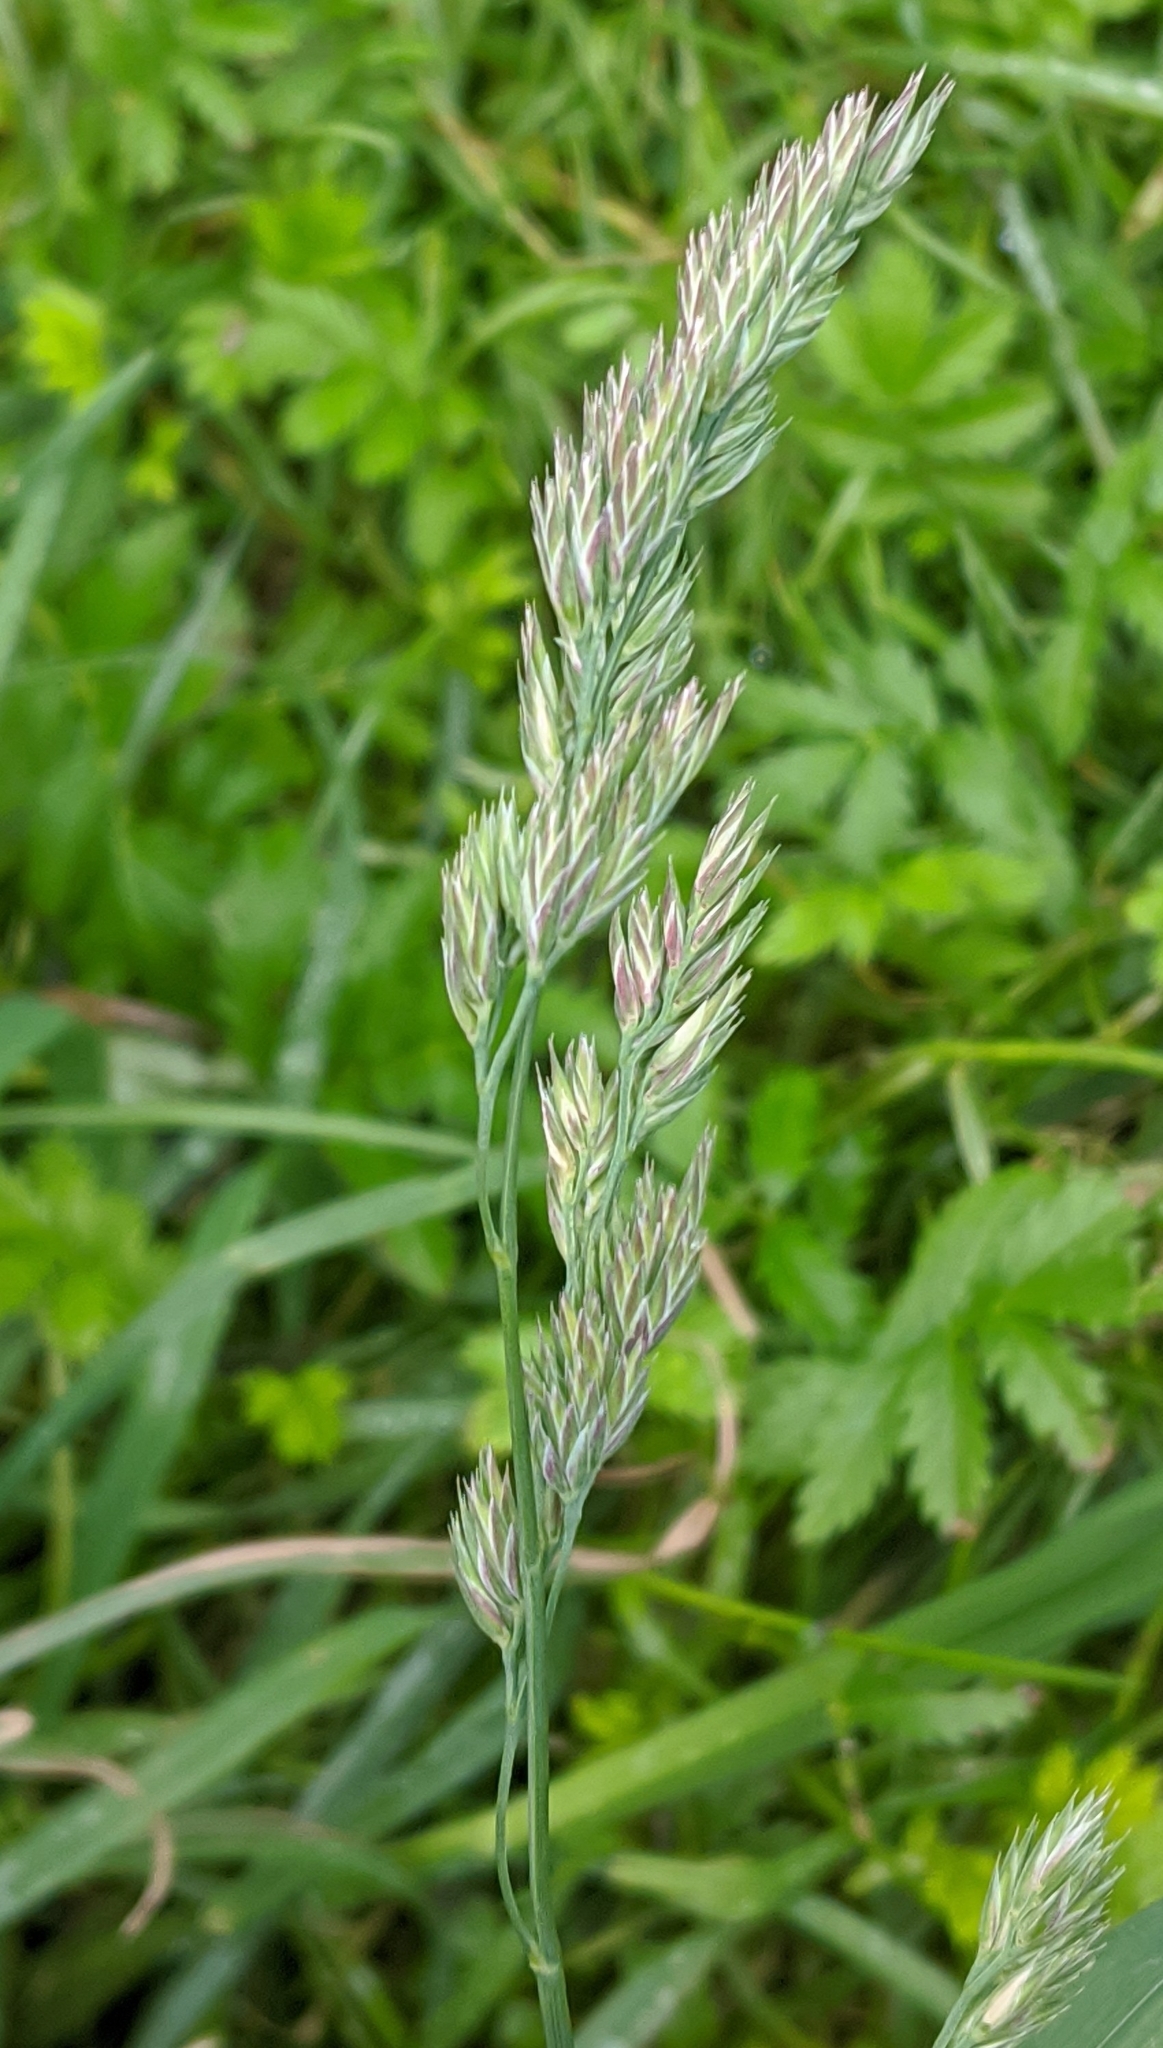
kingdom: Plantae
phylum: Tracheophyta
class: Liliopsida
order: Poales
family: Poaceae
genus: Dactylis
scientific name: Dactylis glomerata
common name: Orchardgrass
